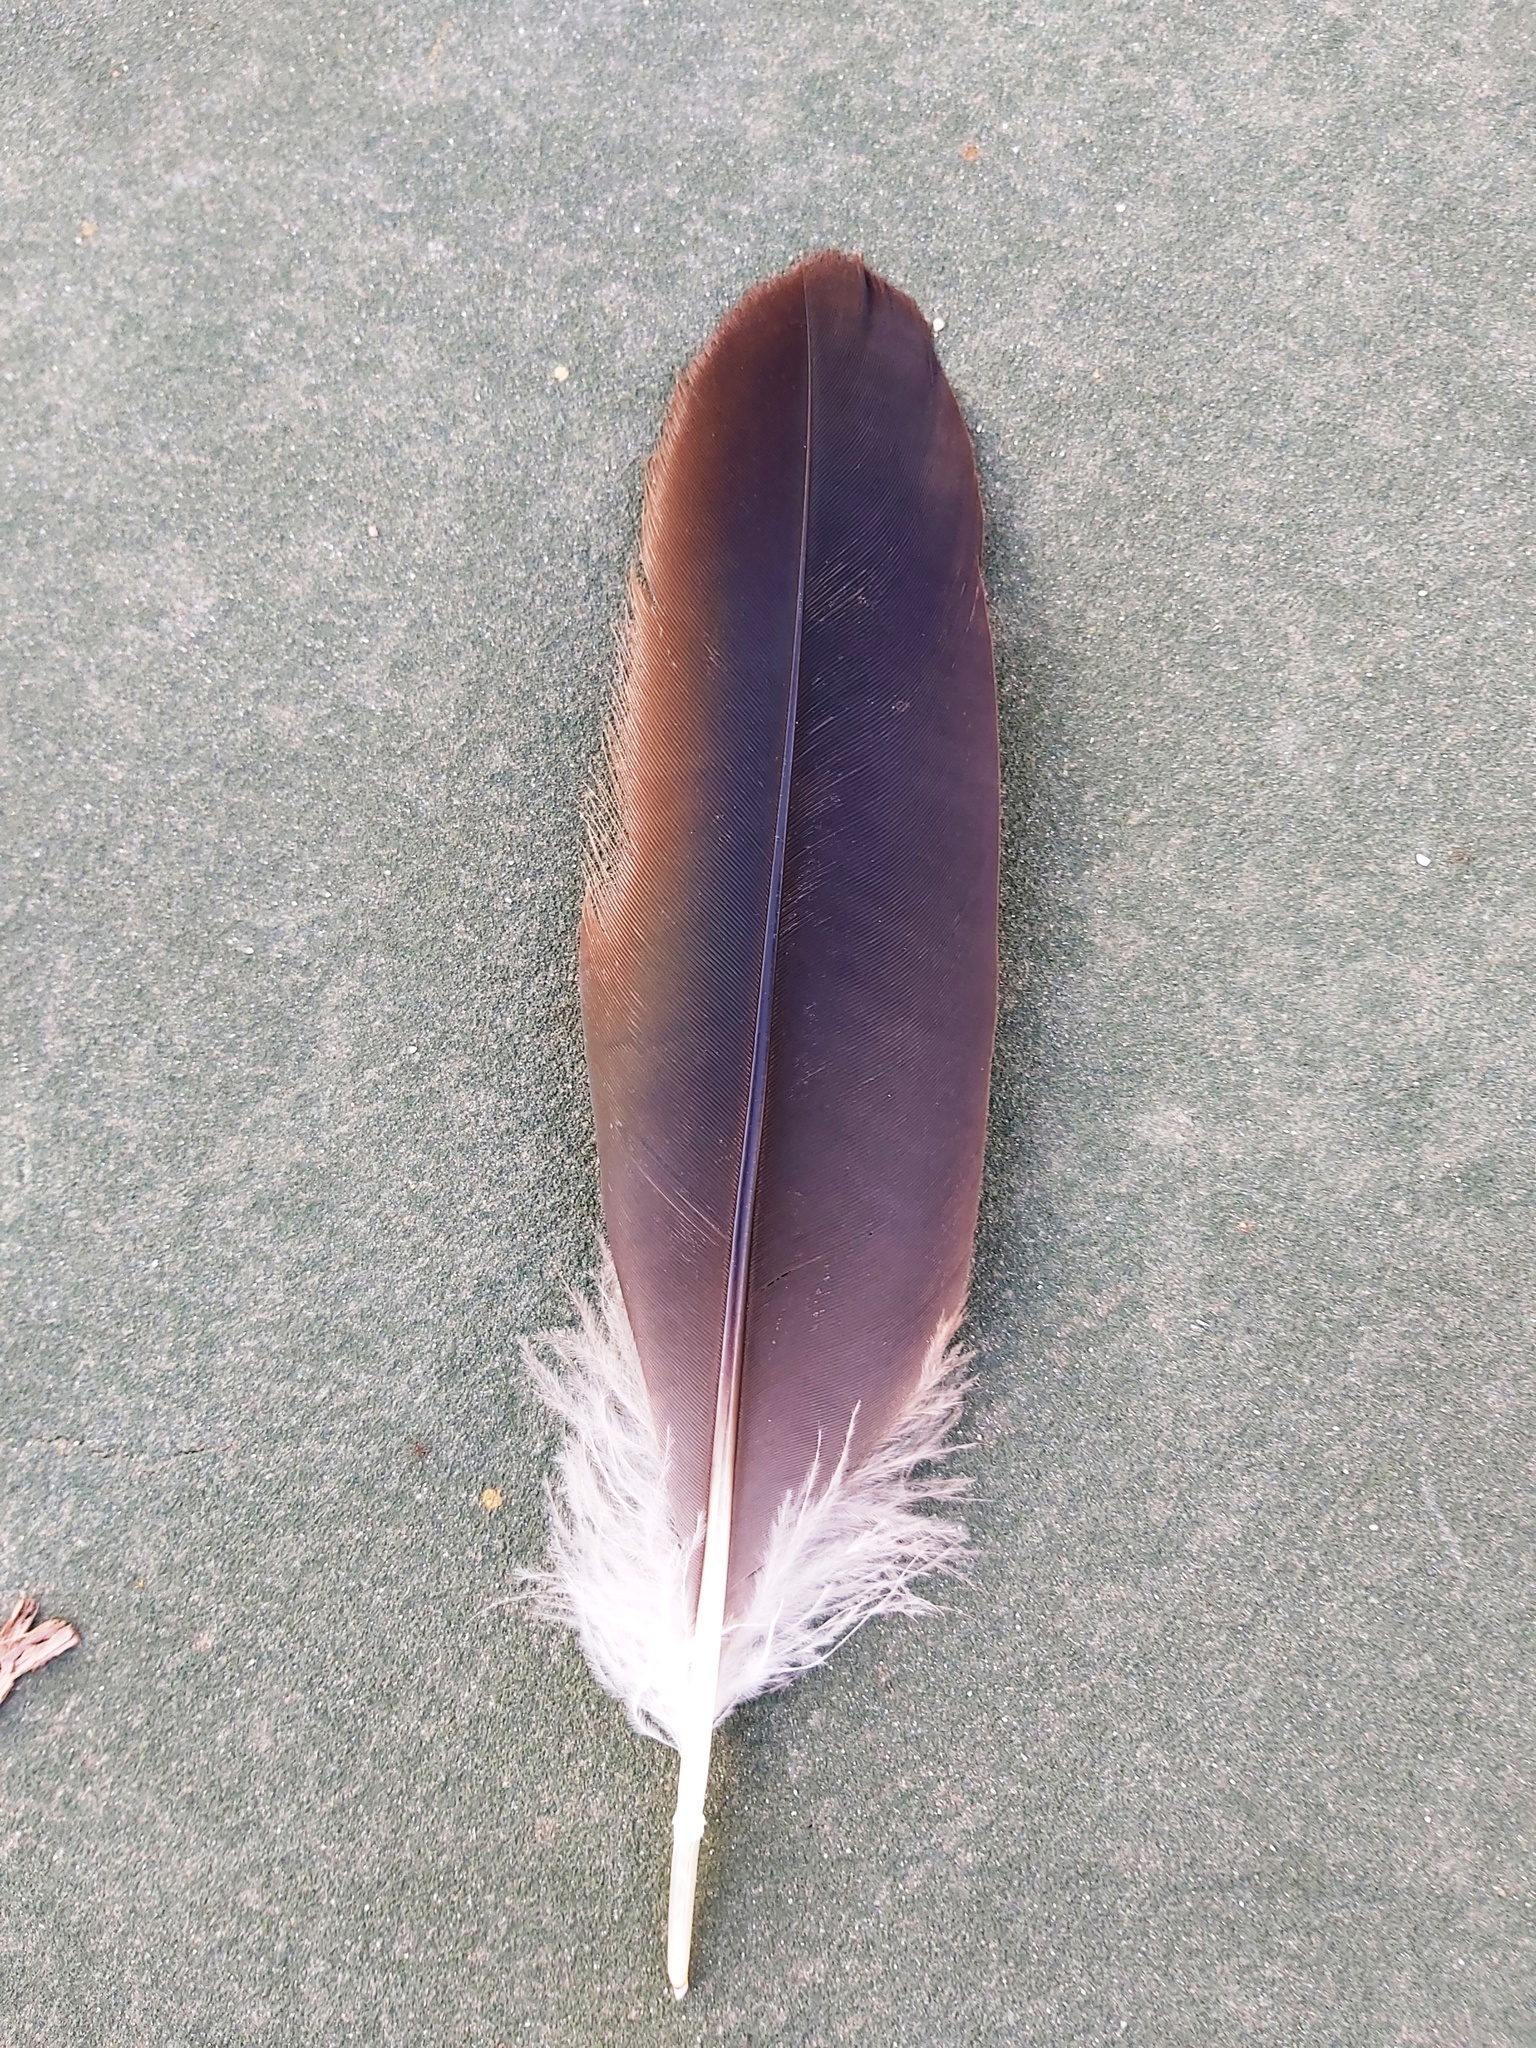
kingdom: Animalia
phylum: Chordata
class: Aves
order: Pelecaniformes
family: Threskiornithidae
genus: Bostrychia
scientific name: Bostrychia hagedash
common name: Hadada ibis
